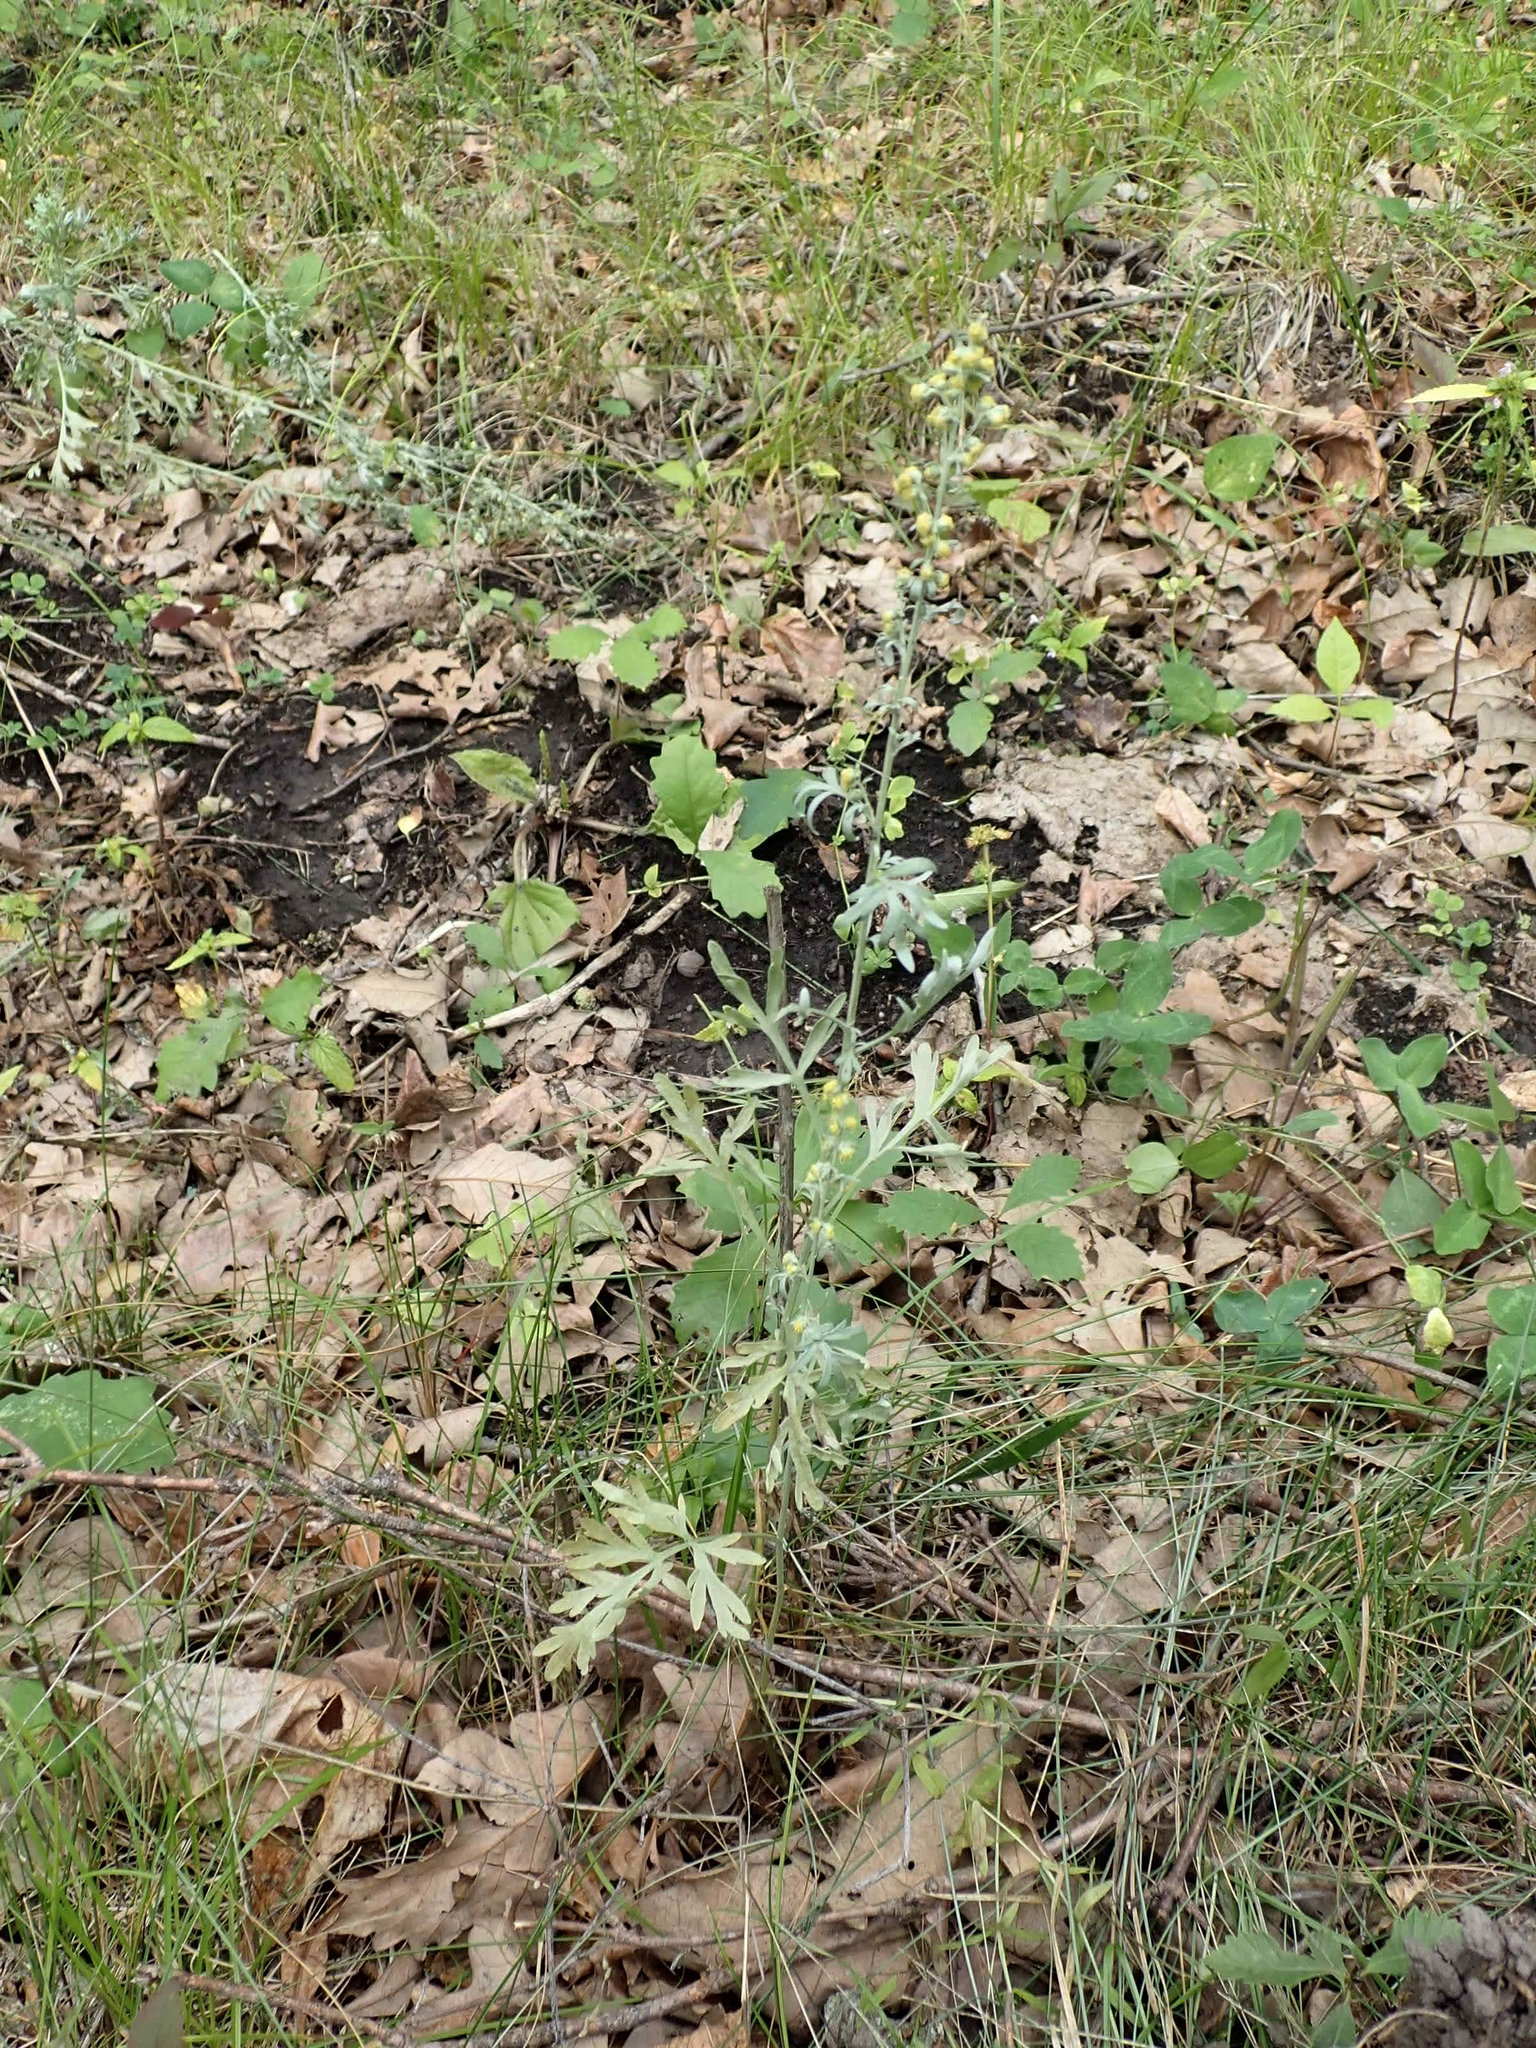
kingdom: Plantae
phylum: Tracheophyta
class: Magnoliopsida
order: Asterales
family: Asteraceae
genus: Artemisia
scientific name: Artemisia absinthium
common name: Wormwood
